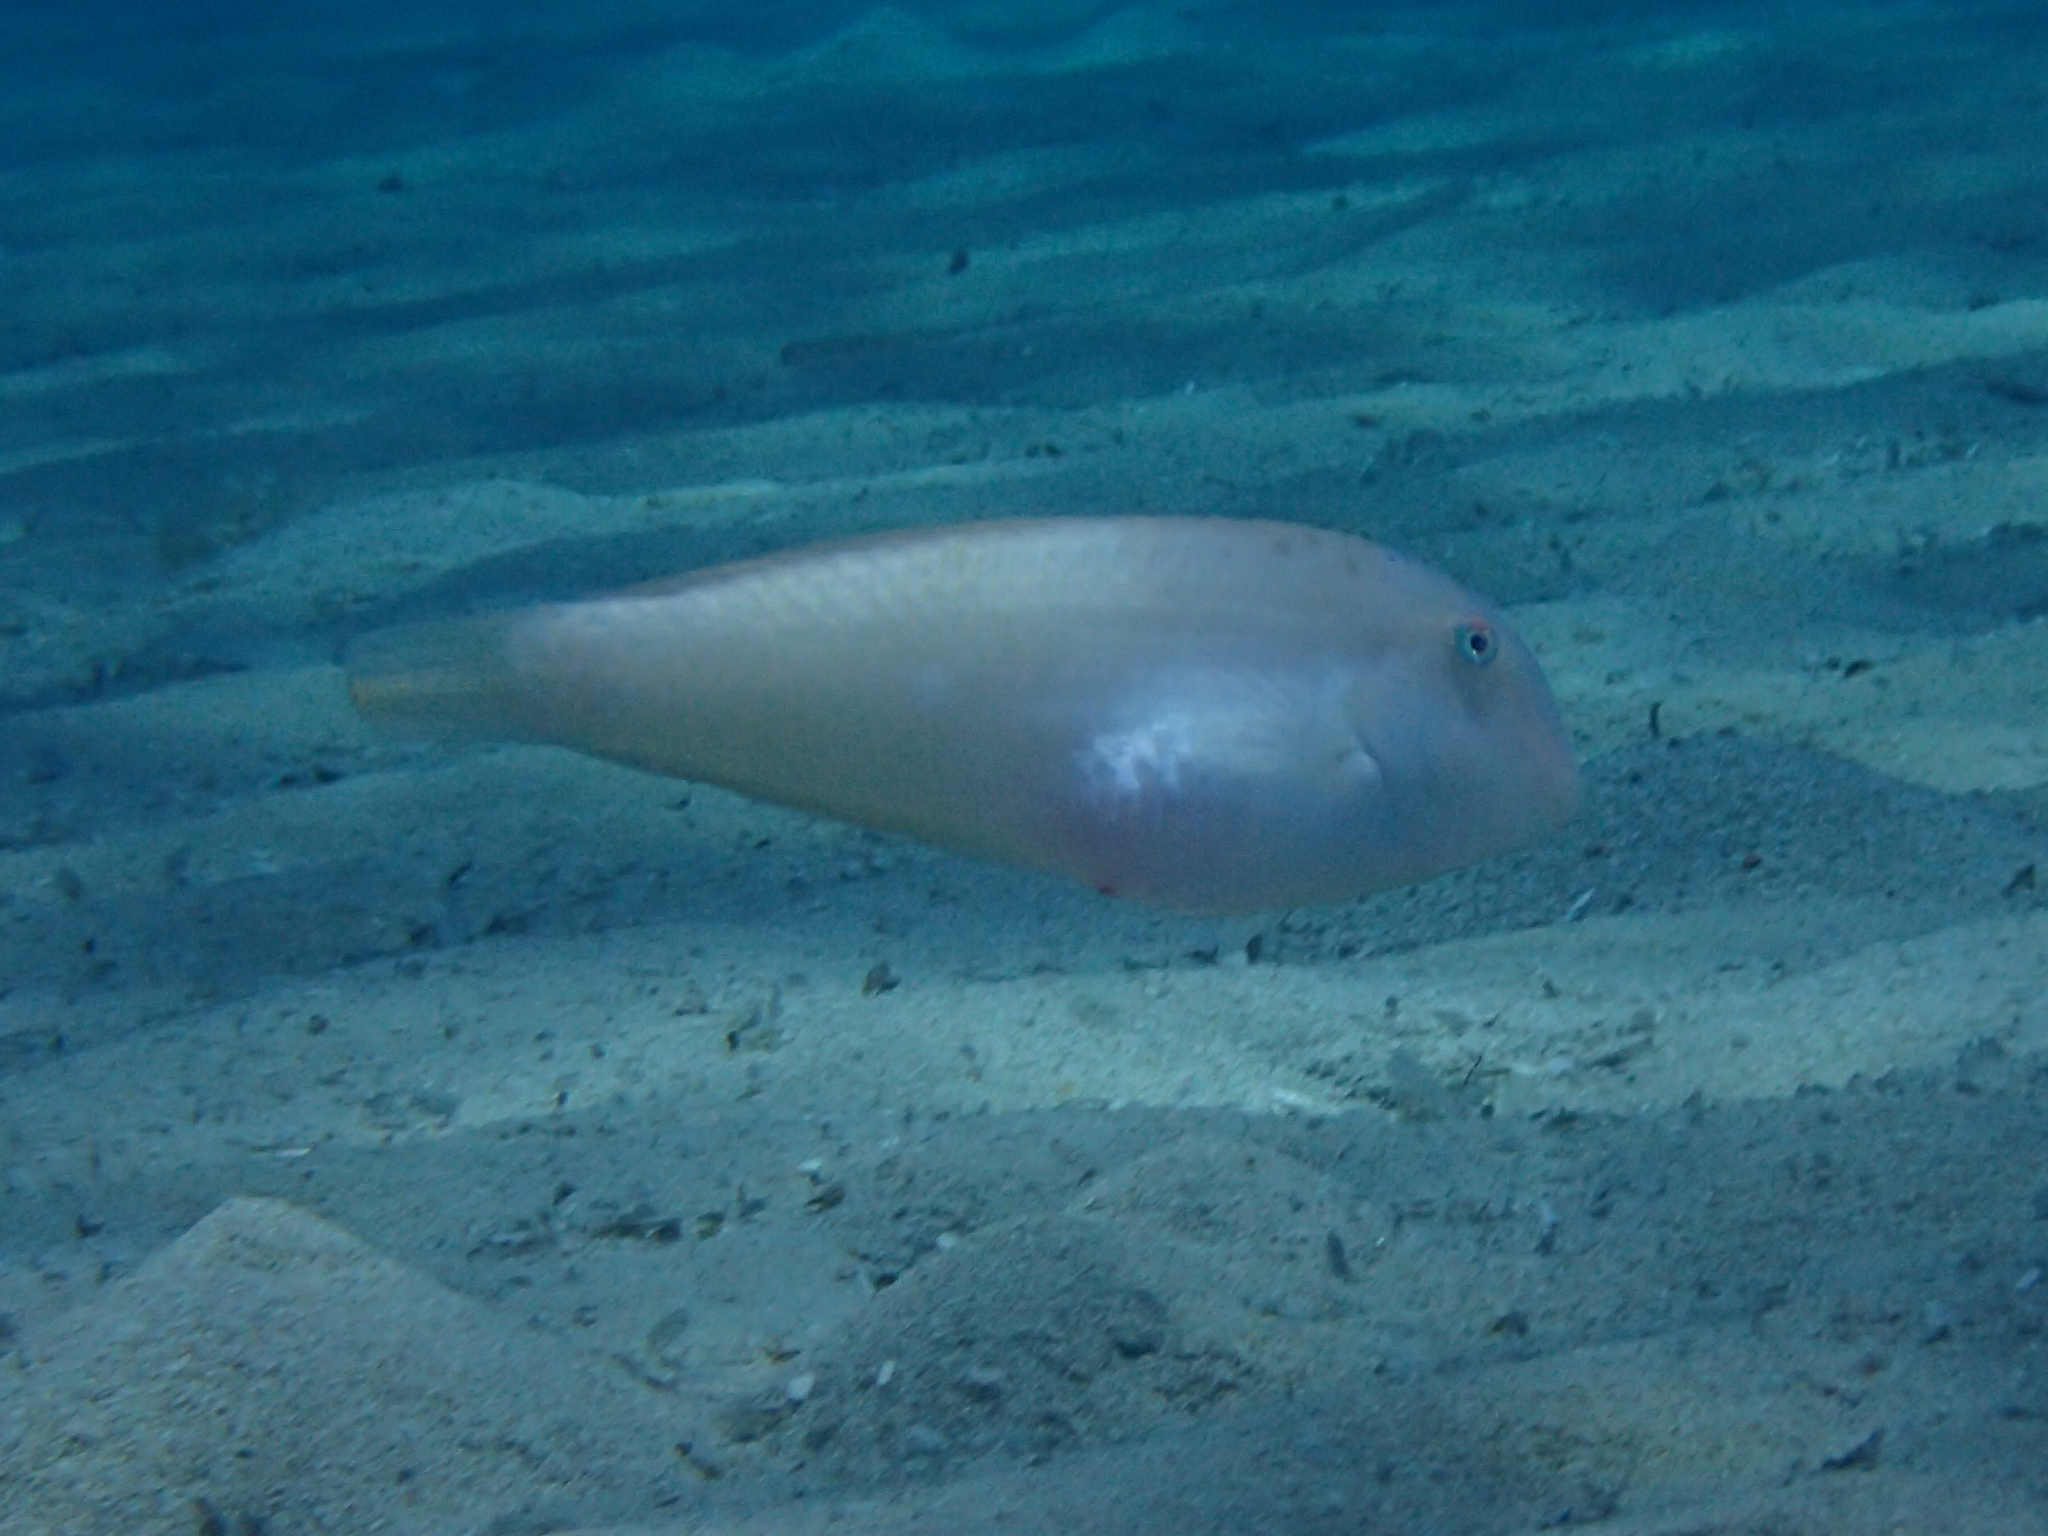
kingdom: Animalia
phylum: Chordata
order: Perciformes
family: Labridae
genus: Xyrichtys
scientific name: Xyrichtys novacula
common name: Pearly razorfish
